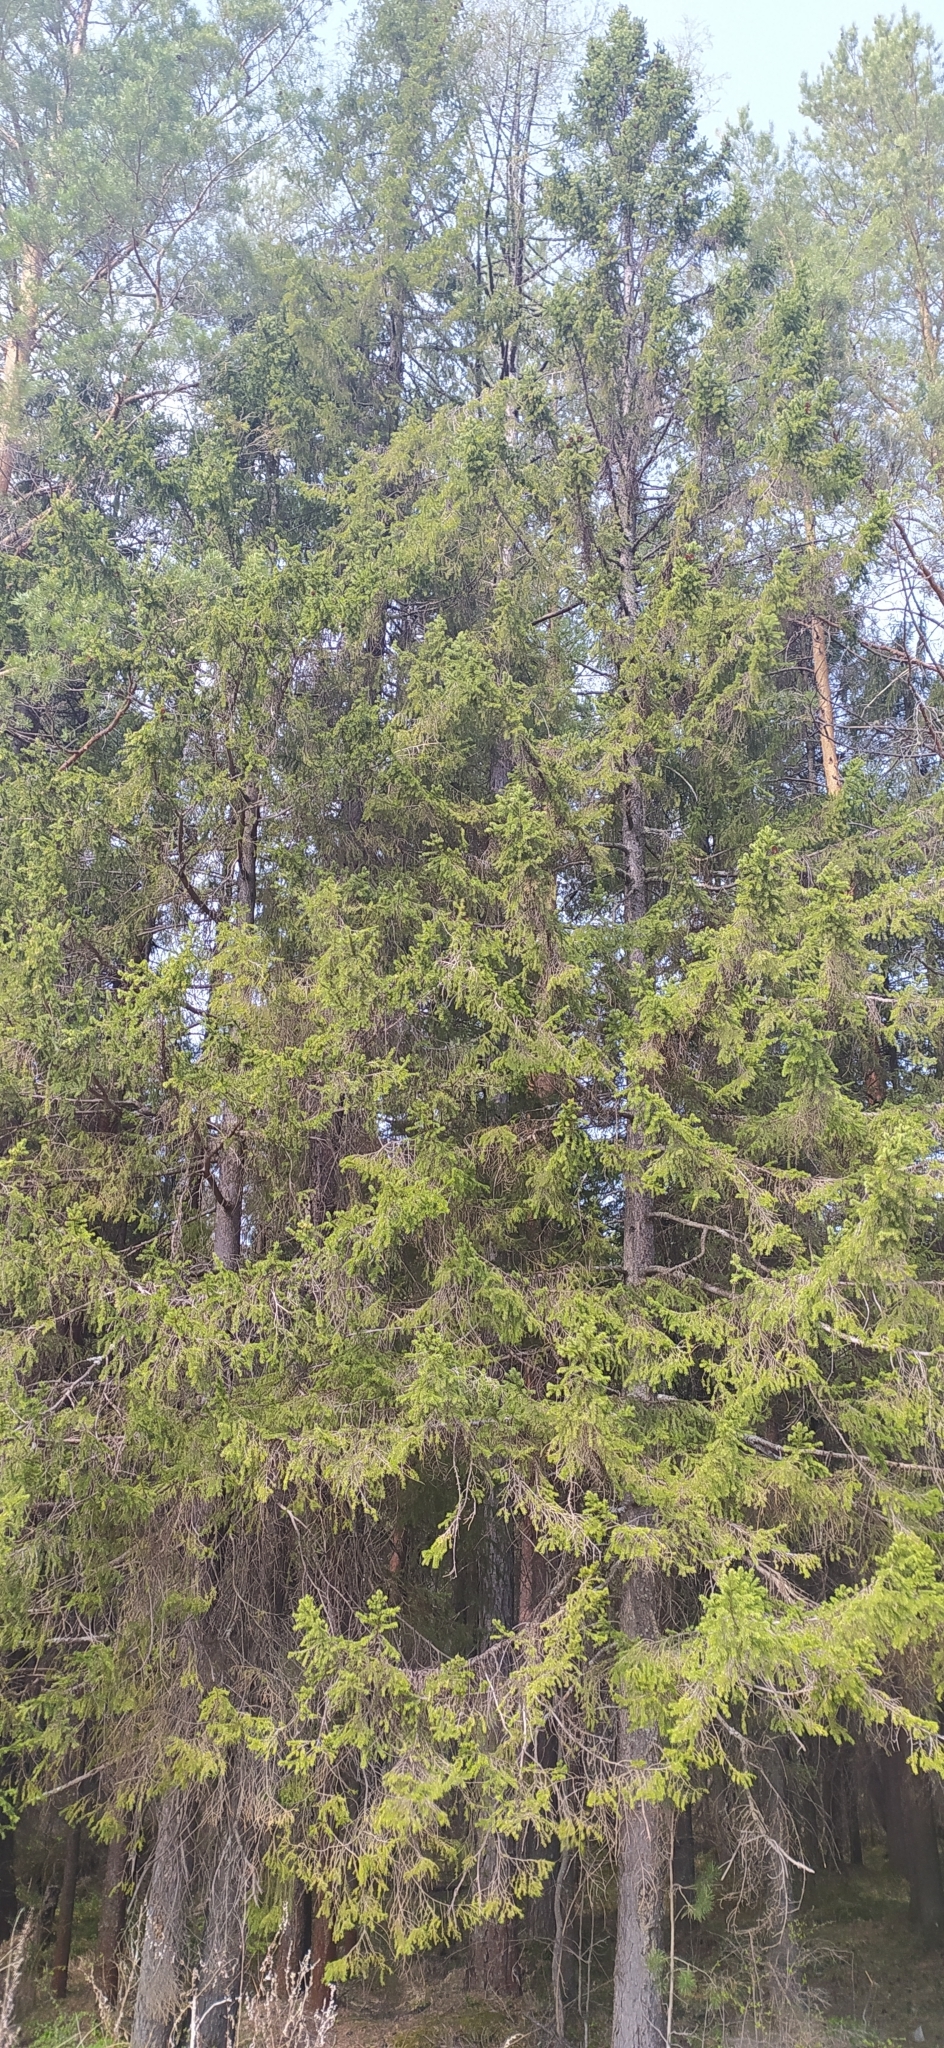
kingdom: Plantae
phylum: Tracheophyta
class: Pinopsida
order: Pinales
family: Pinaceae
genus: Picea
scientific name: Picea obovata
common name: Siberian spruce
